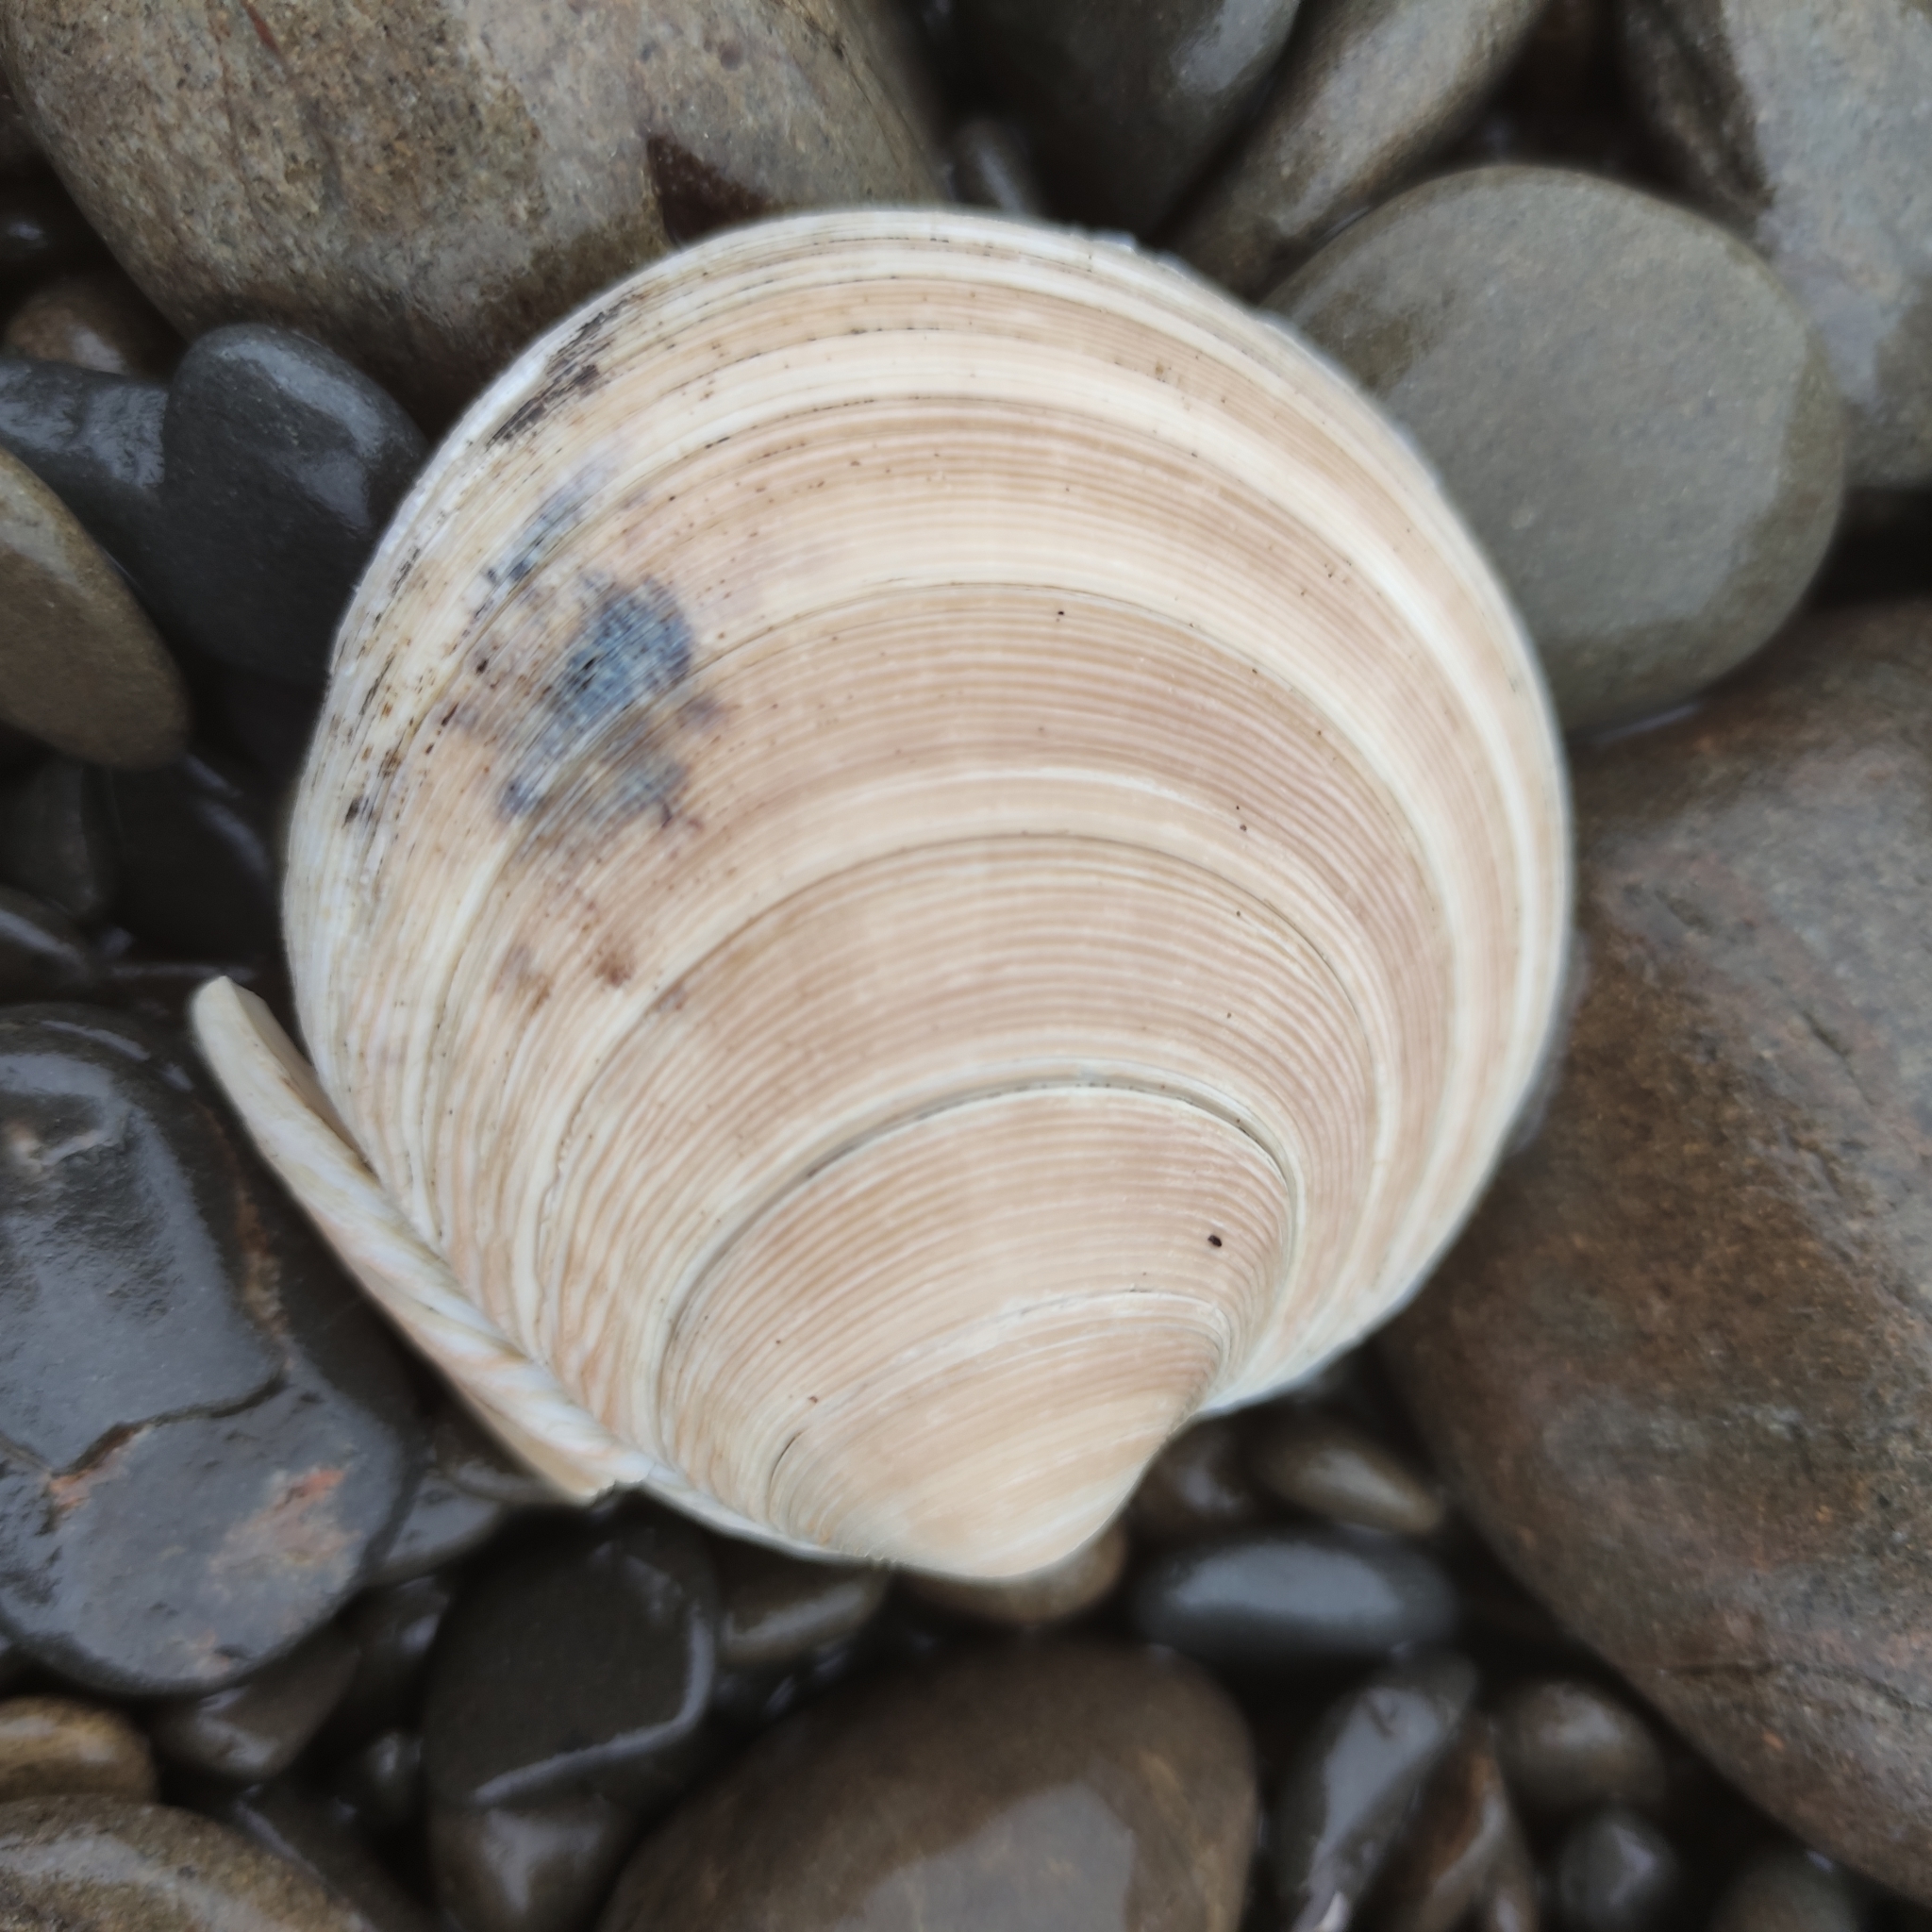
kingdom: Animalia
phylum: Mollusca
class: Bivalvia
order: Venerida
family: Veneridae
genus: Dosinia
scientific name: Dosinia anus
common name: Old-woman dosinia
